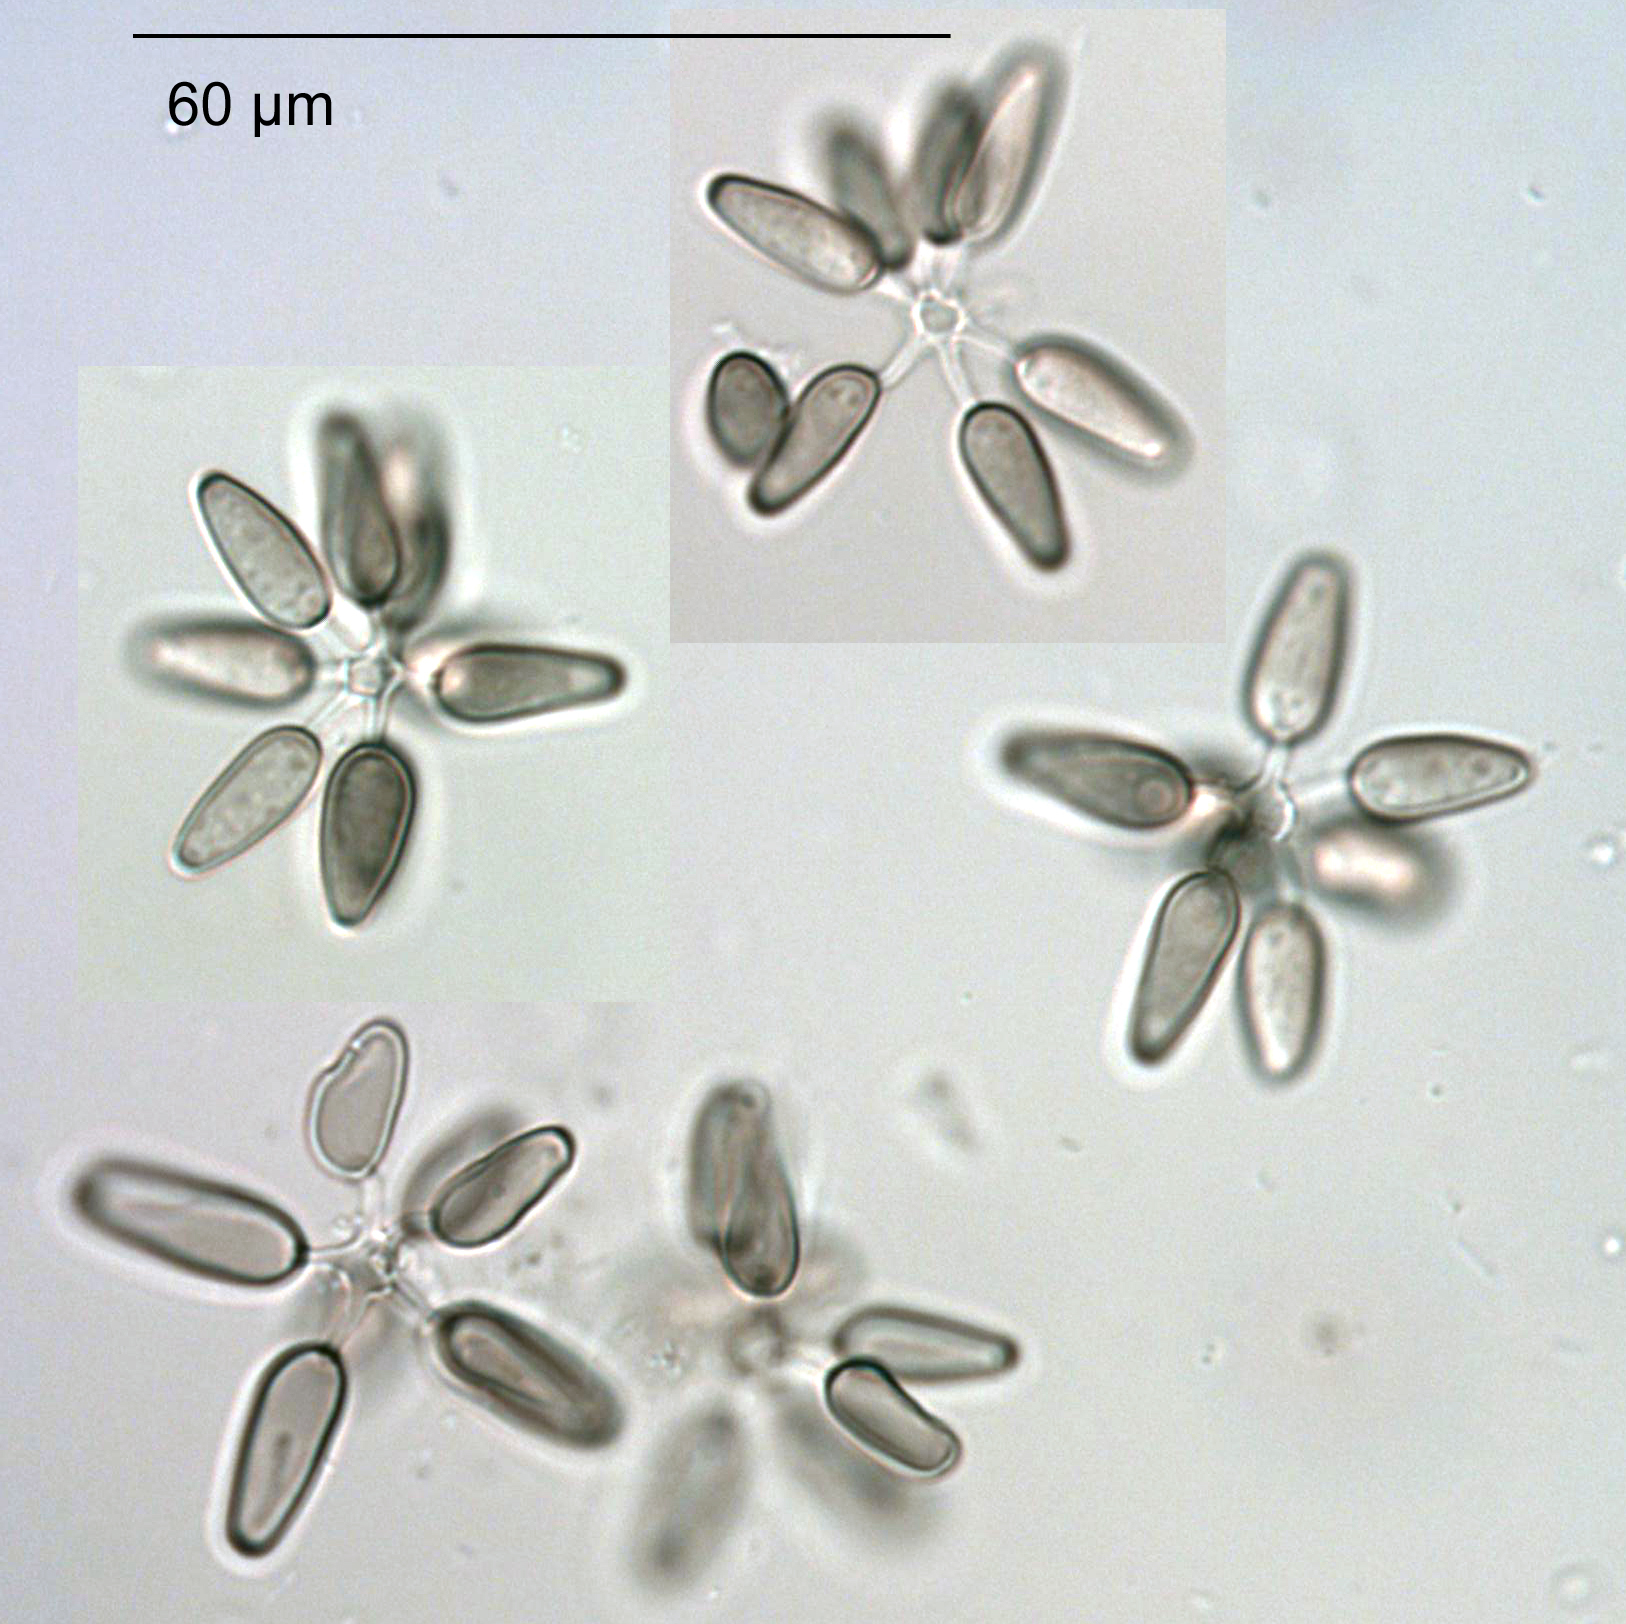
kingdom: Fungi
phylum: Ascomycota
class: Dothideomycetes
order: Pleosporales
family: Pleosporaceae
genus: Asteromyces
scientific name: Asteromyces cruciatus
